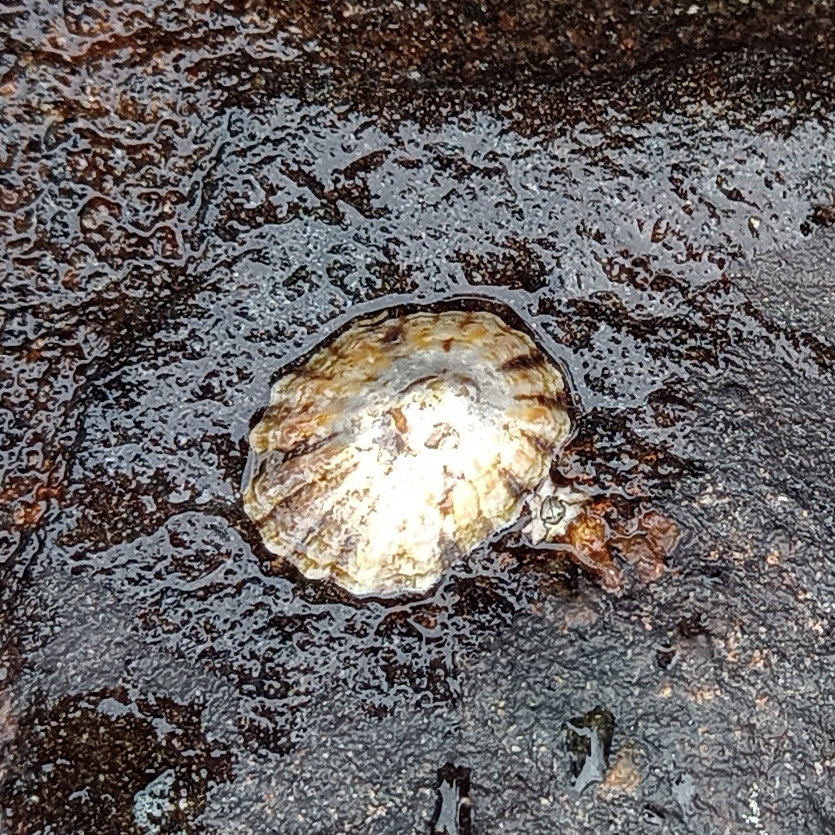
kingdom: Animalia
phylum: Mollusca
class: Gastropoda
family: Lottiidae
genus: Lottia
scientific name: Lottia subrugosa
